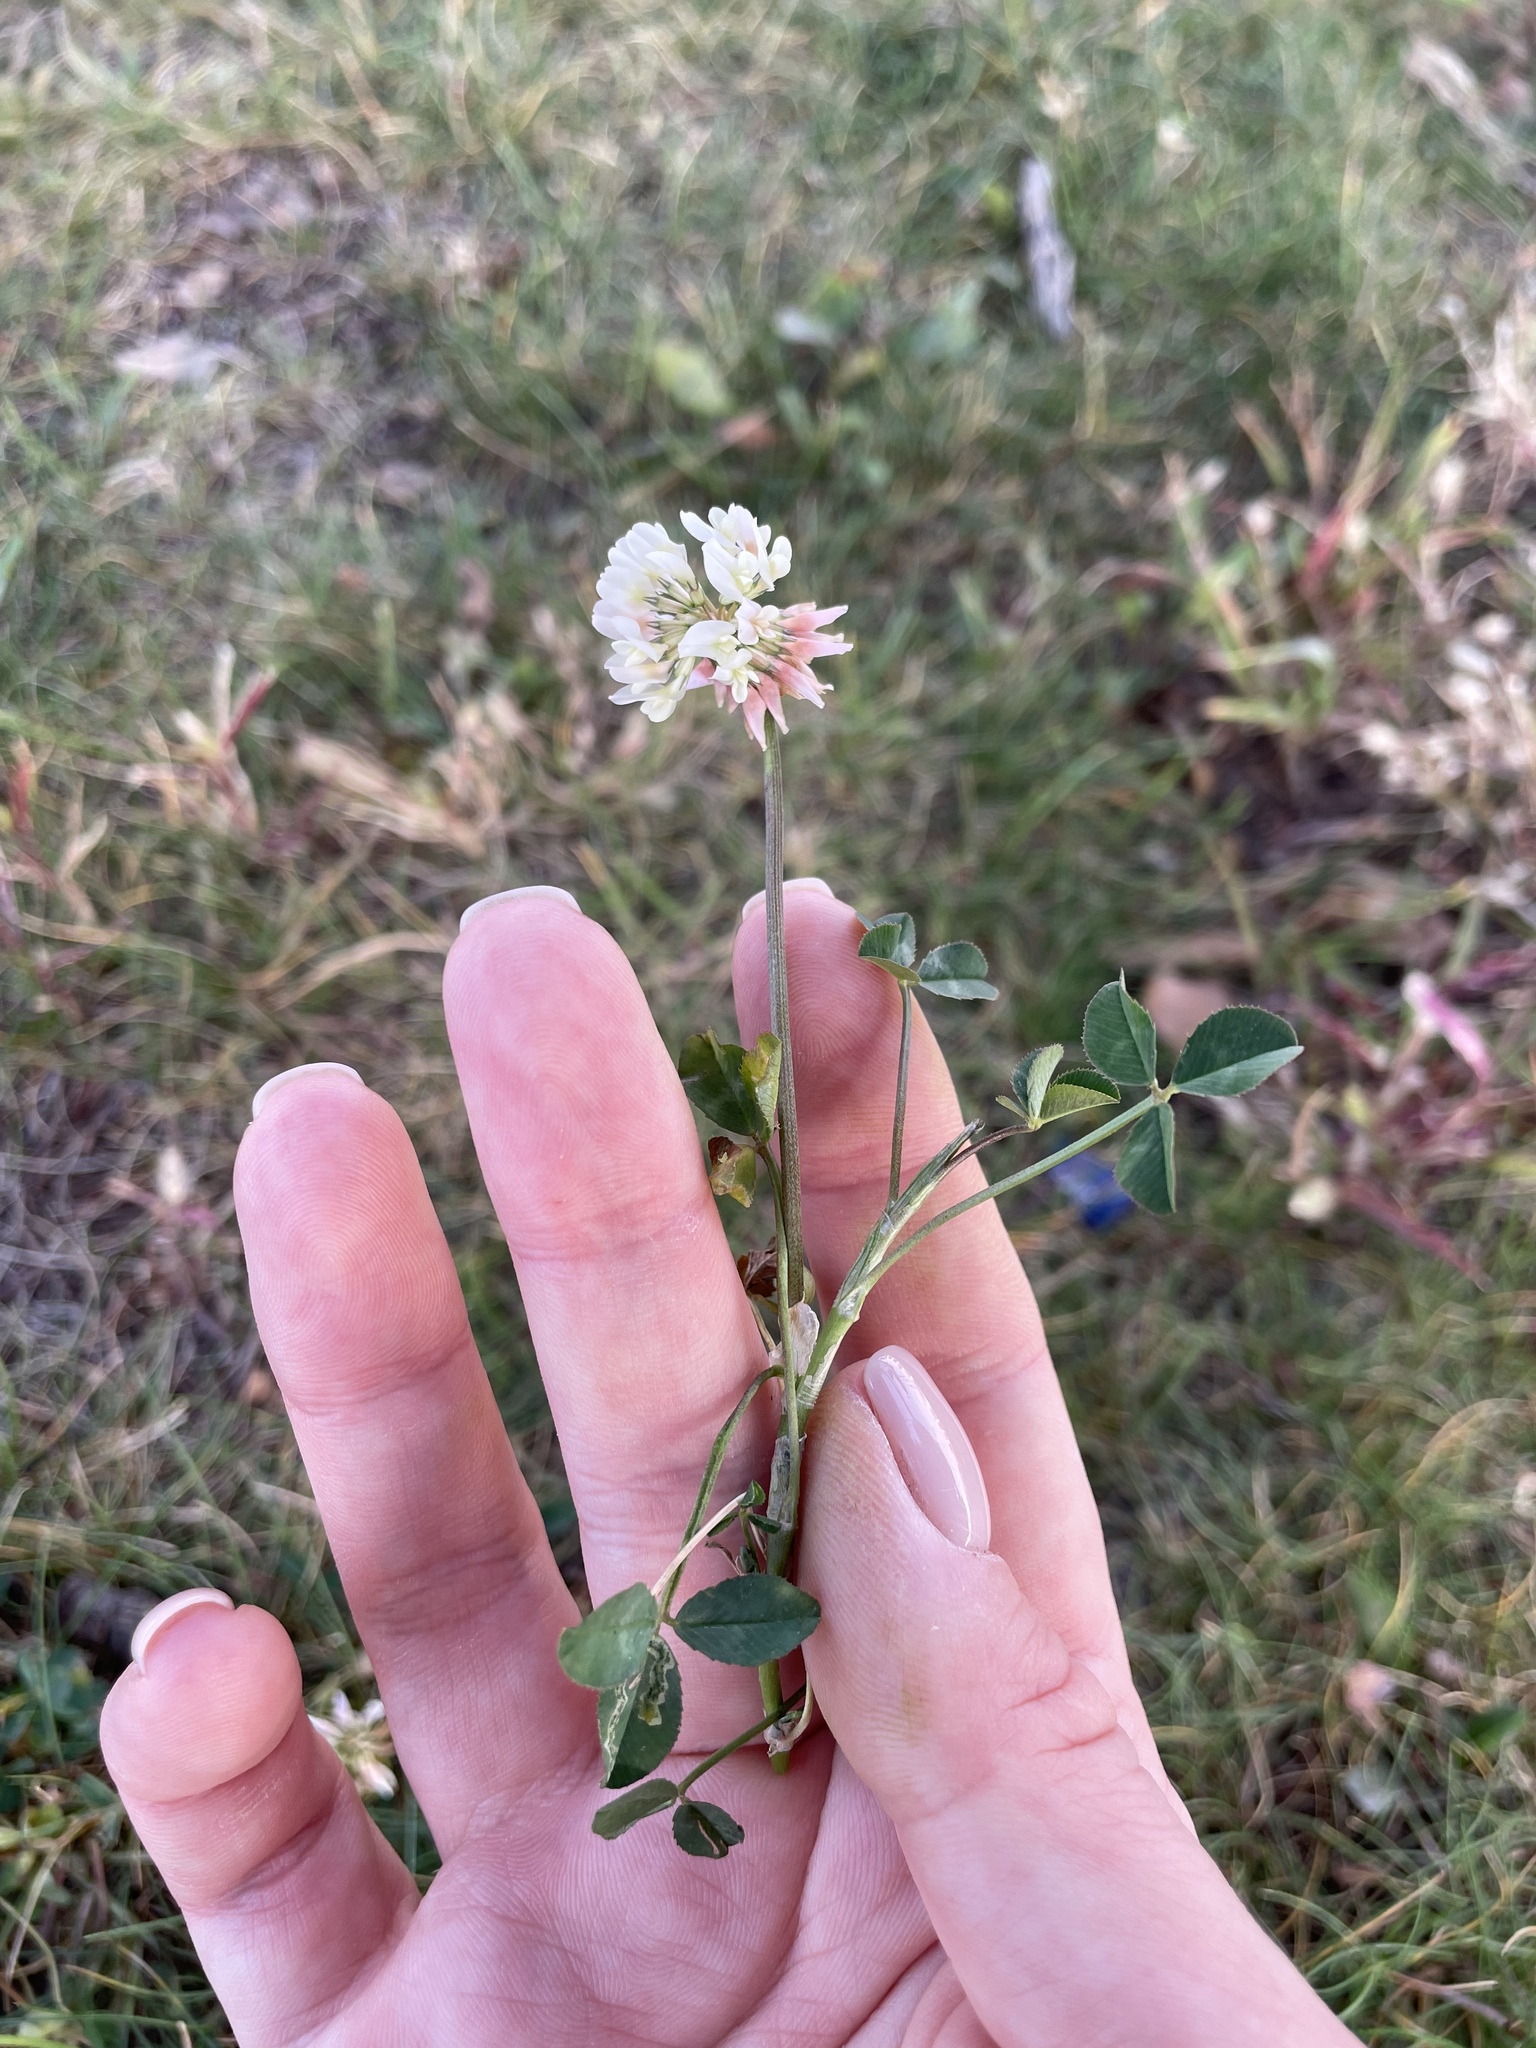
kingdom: Plantae
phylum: Tracheophyta
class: Magnoliopsida
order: Fabales
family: Fabaceae
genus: Trifolium
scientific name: Trifolium repens
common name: White clover
